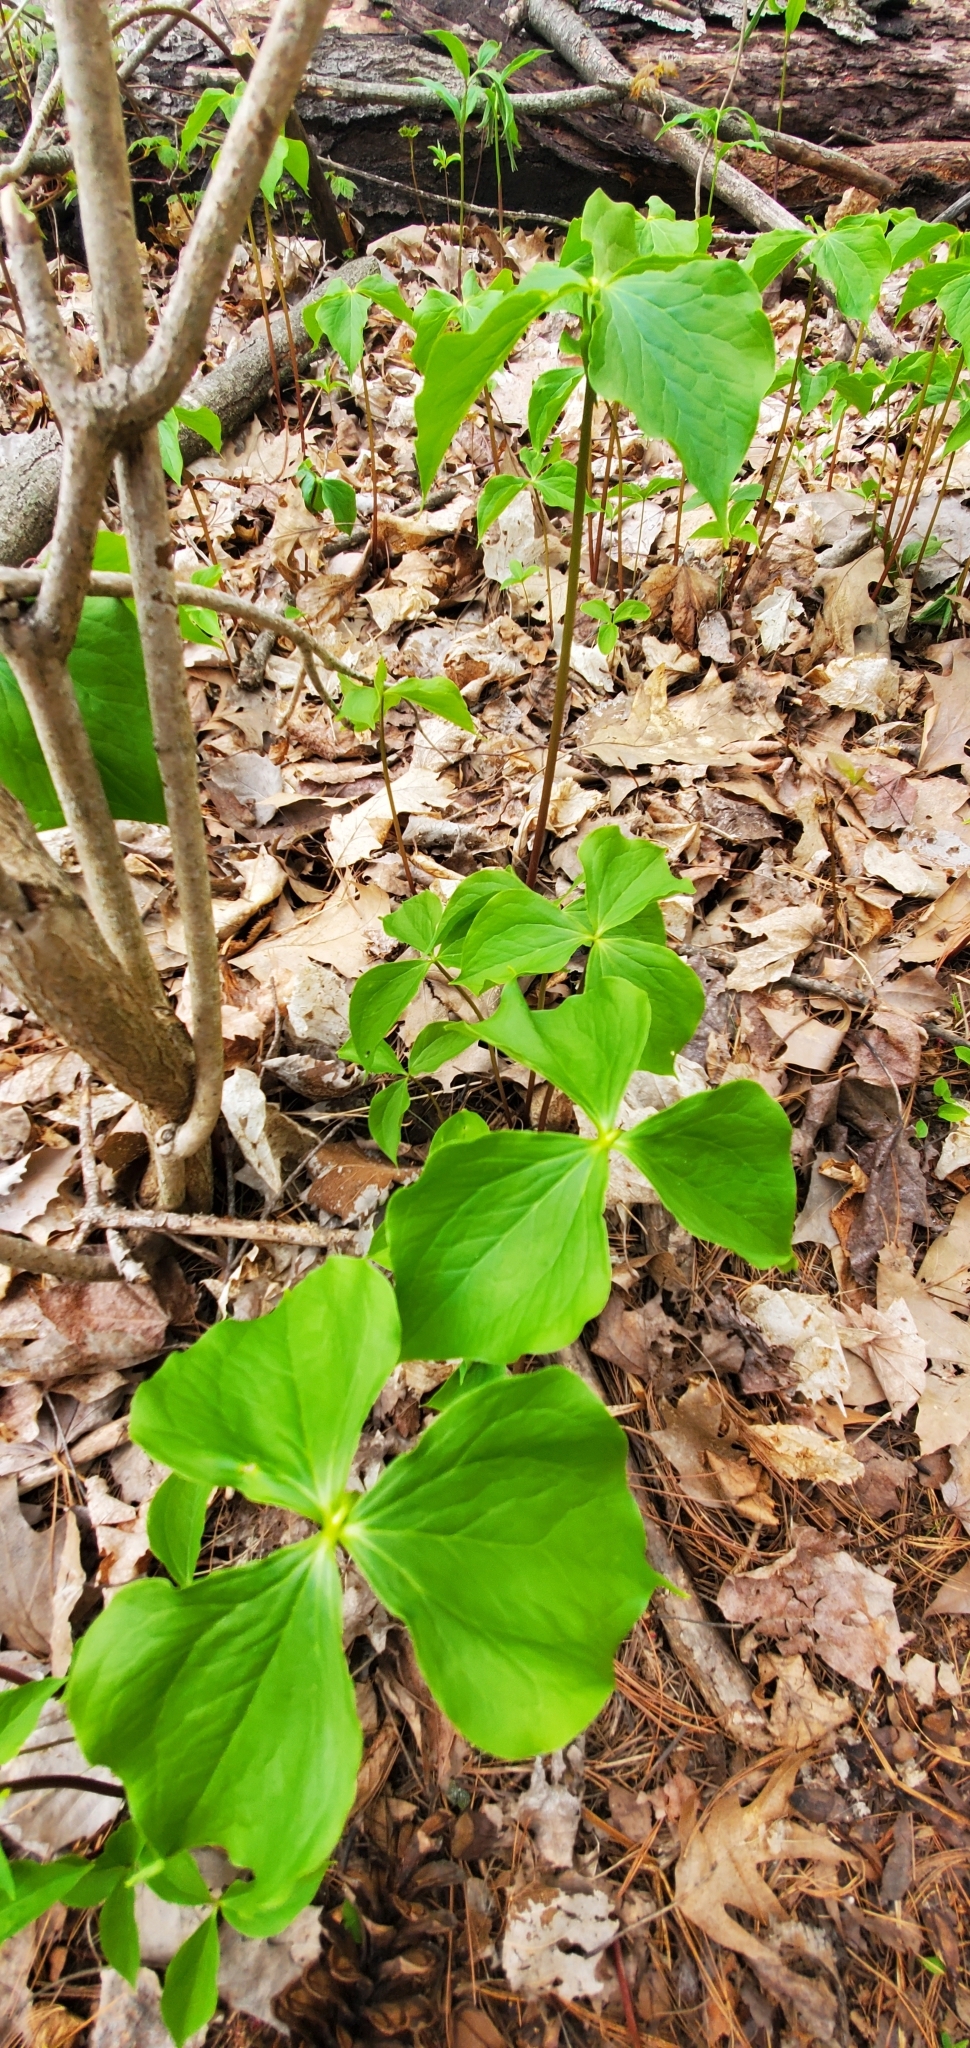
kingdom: Plantae
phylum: Tracheophyta
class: Liliopsida
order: Liliales
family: Melanthiaceae
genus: Trillium
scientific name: Trillium cernuum
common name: Nodding trillium
